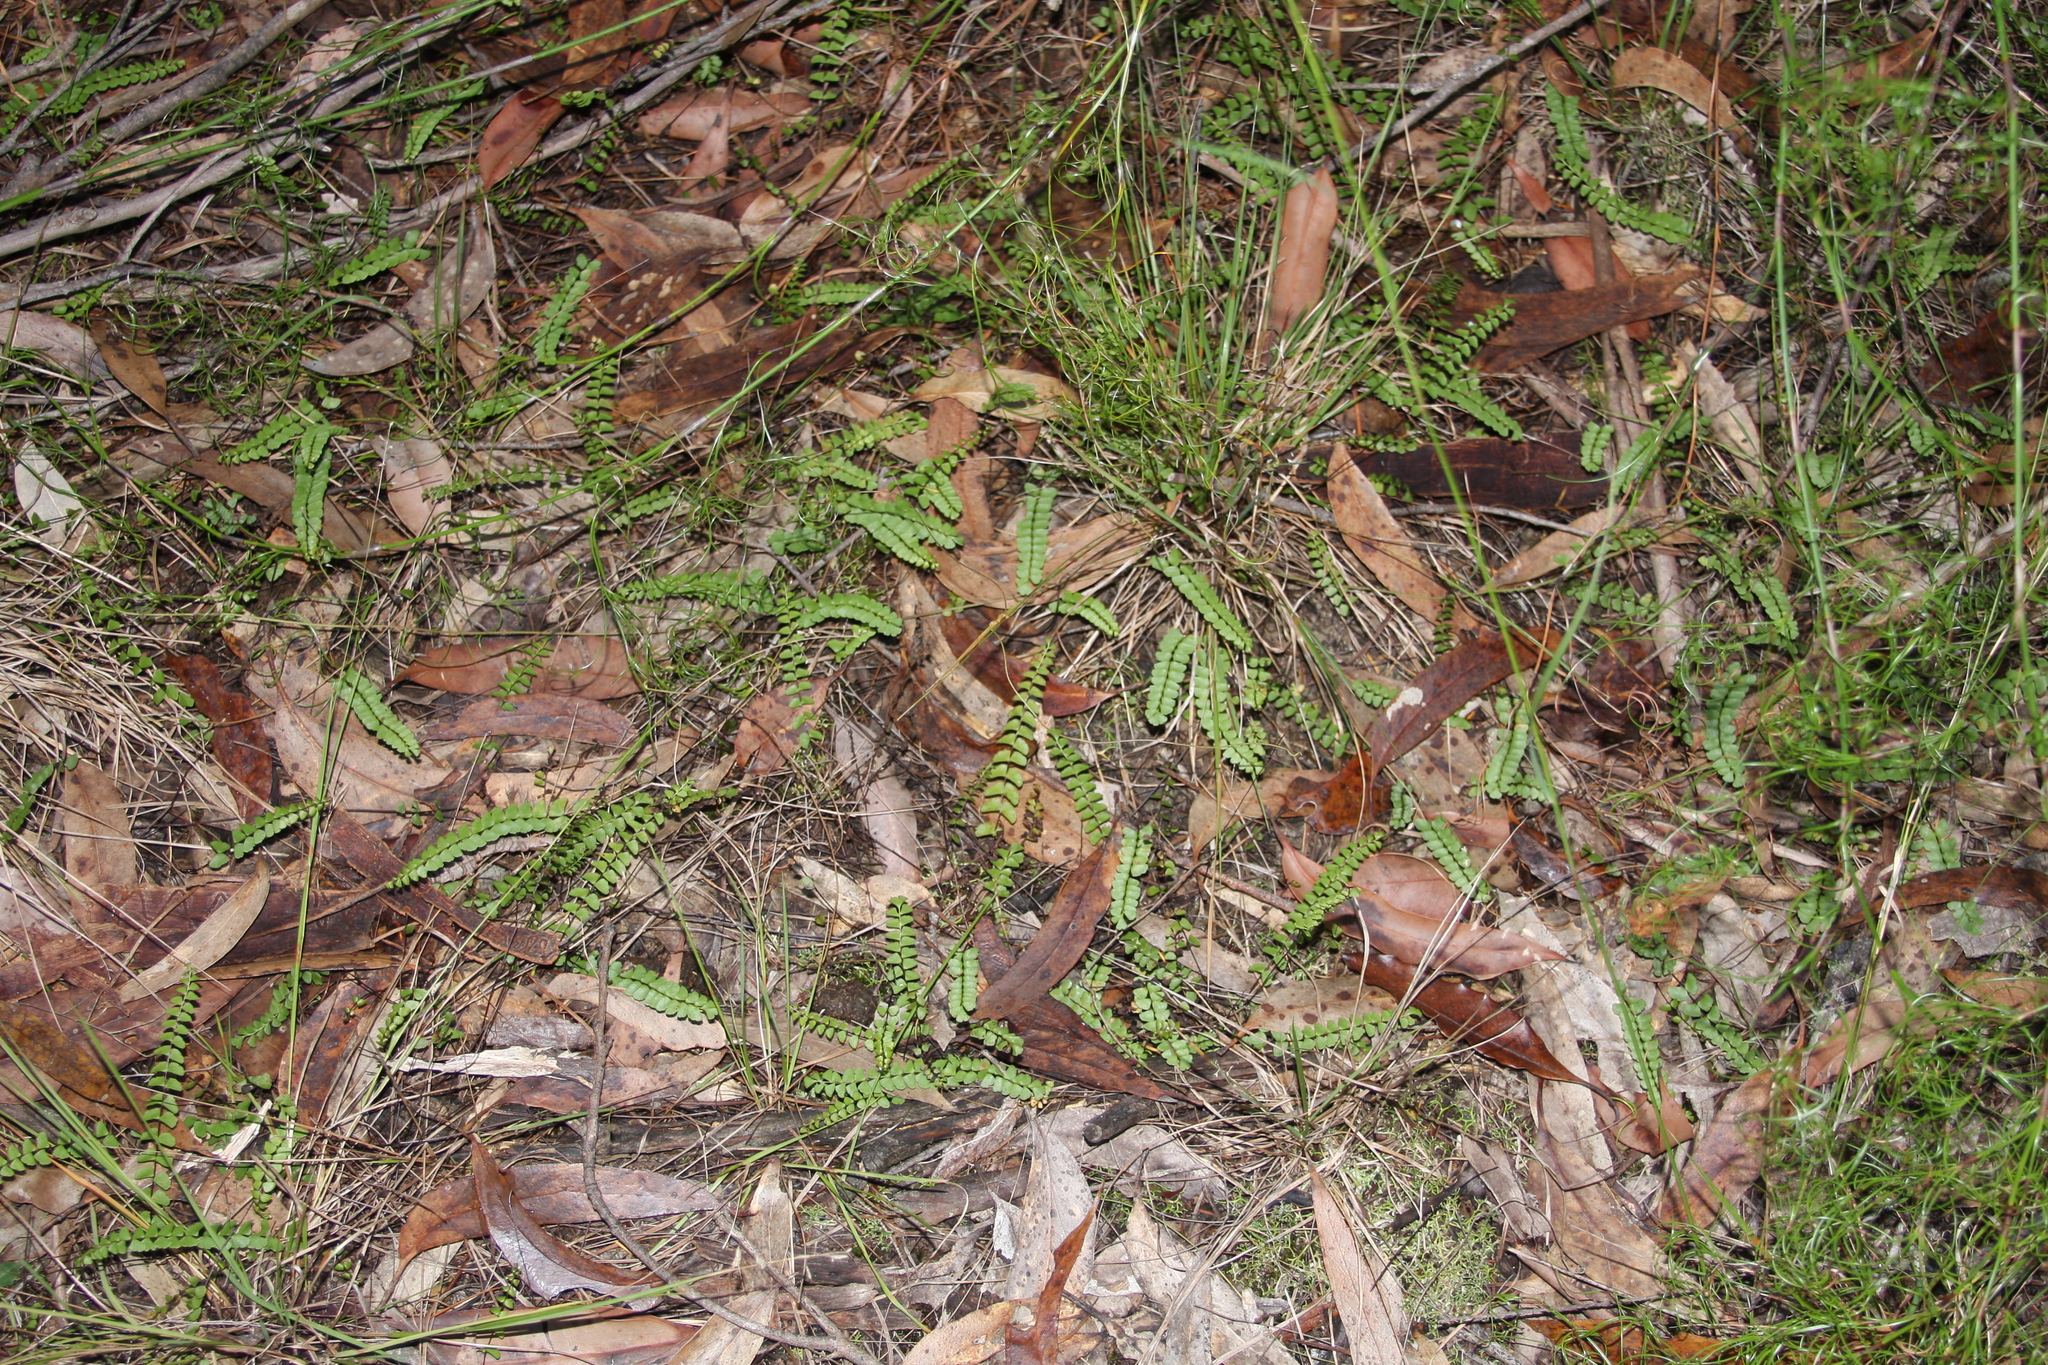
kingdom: Plantae
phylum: Tracheophyta
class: Polypodiopsida
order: Polypodiales
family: Lindsaeaceae
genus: Lindsaea
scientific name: Lindsaea linearis
